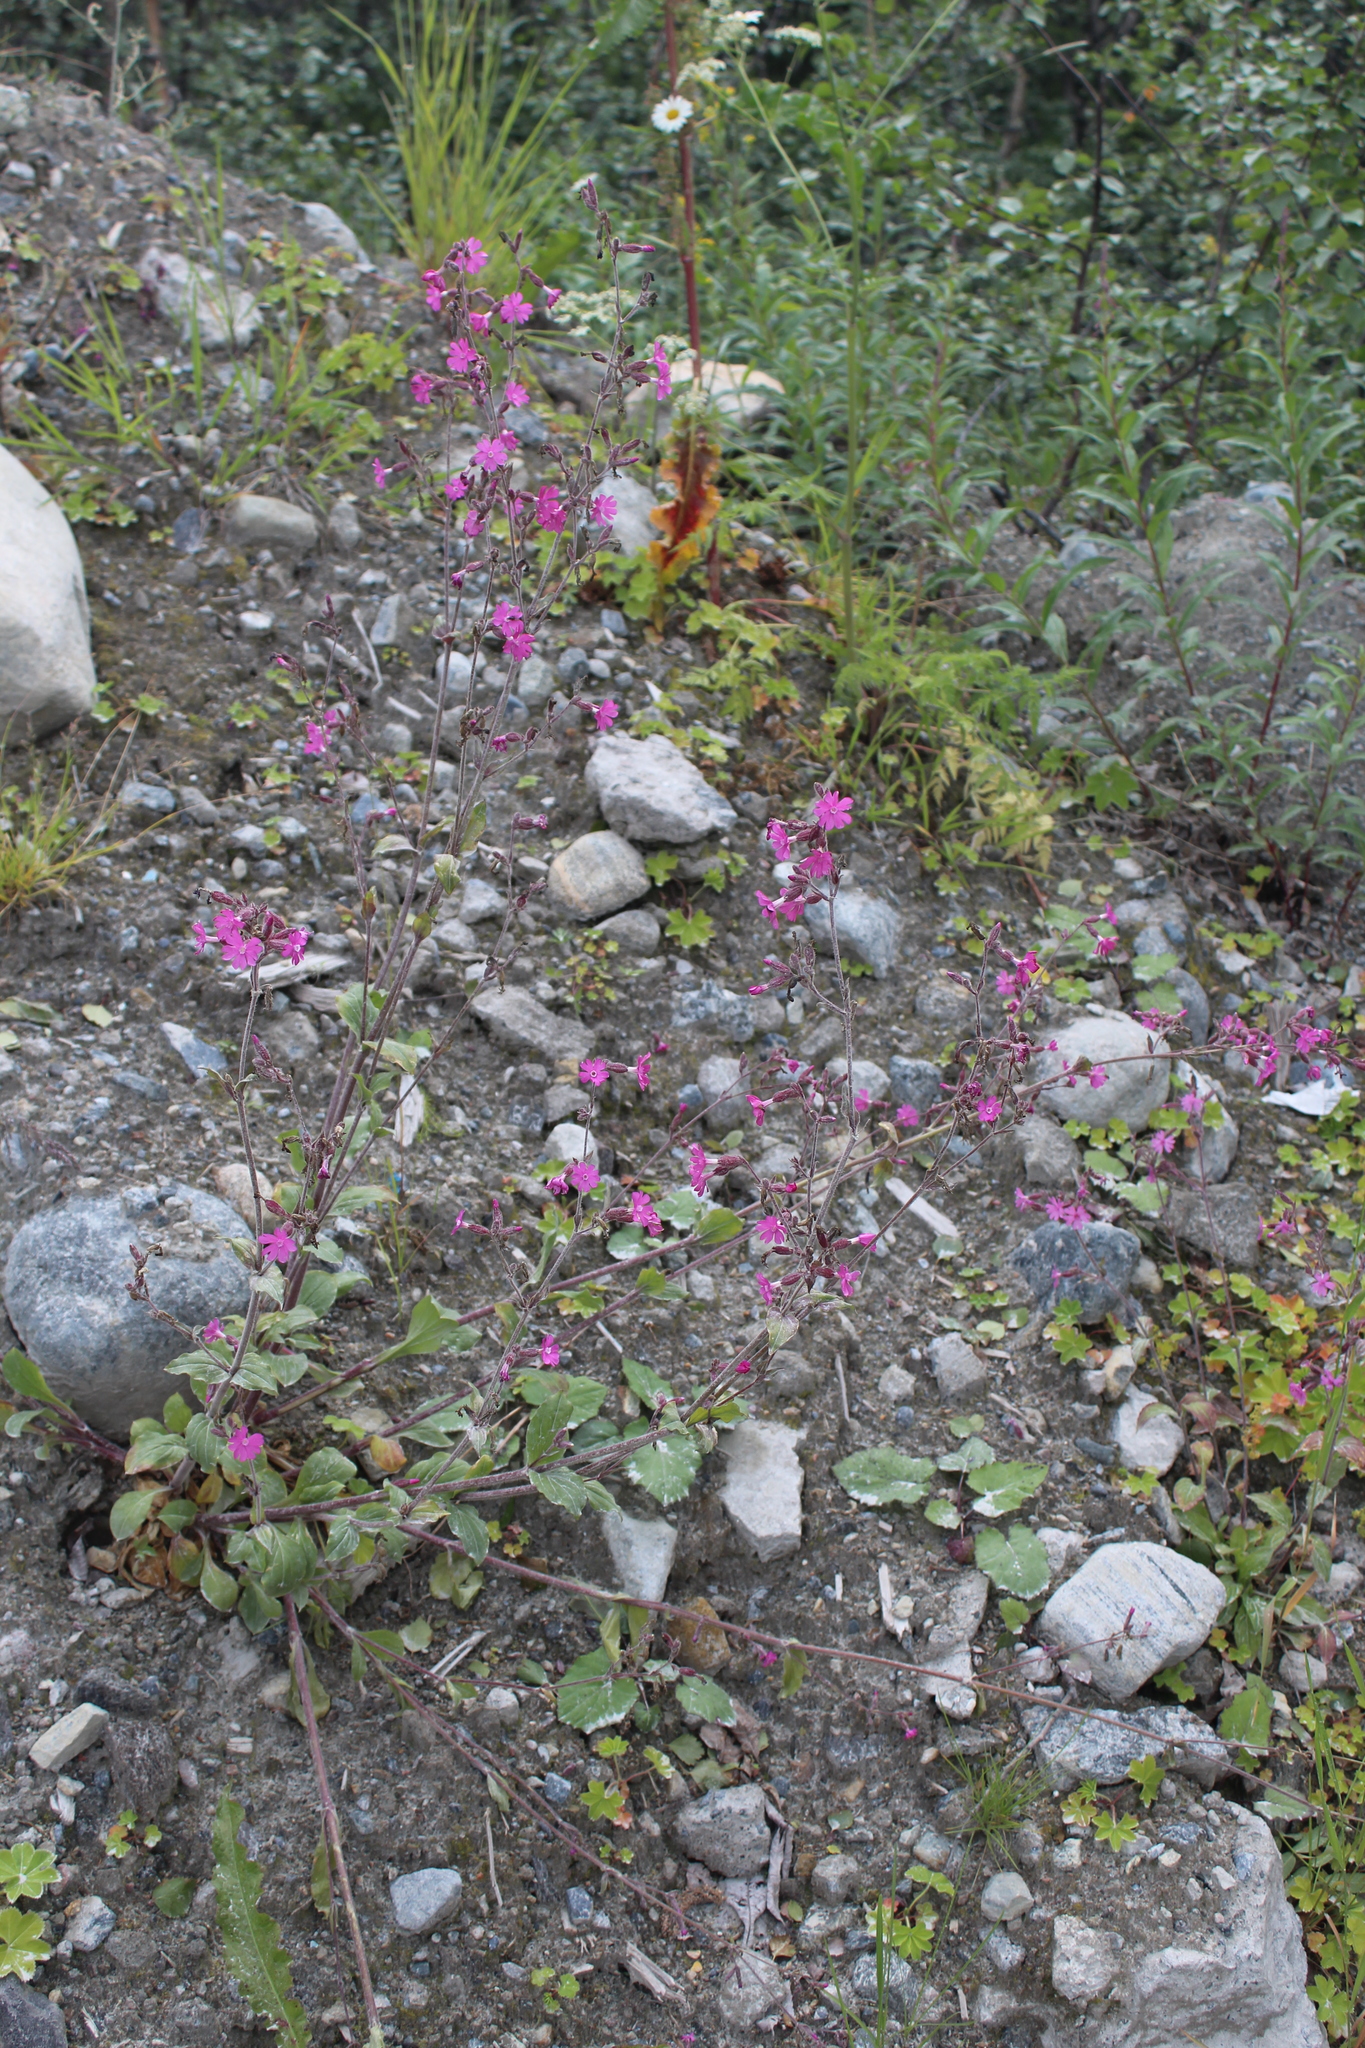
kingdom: Plantae
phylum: Tracheophyta
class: Magnoliopsida
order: Caryophyllales
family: Caryophyllaceae
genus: Silene
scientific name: Silene dioica
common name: Red campion
